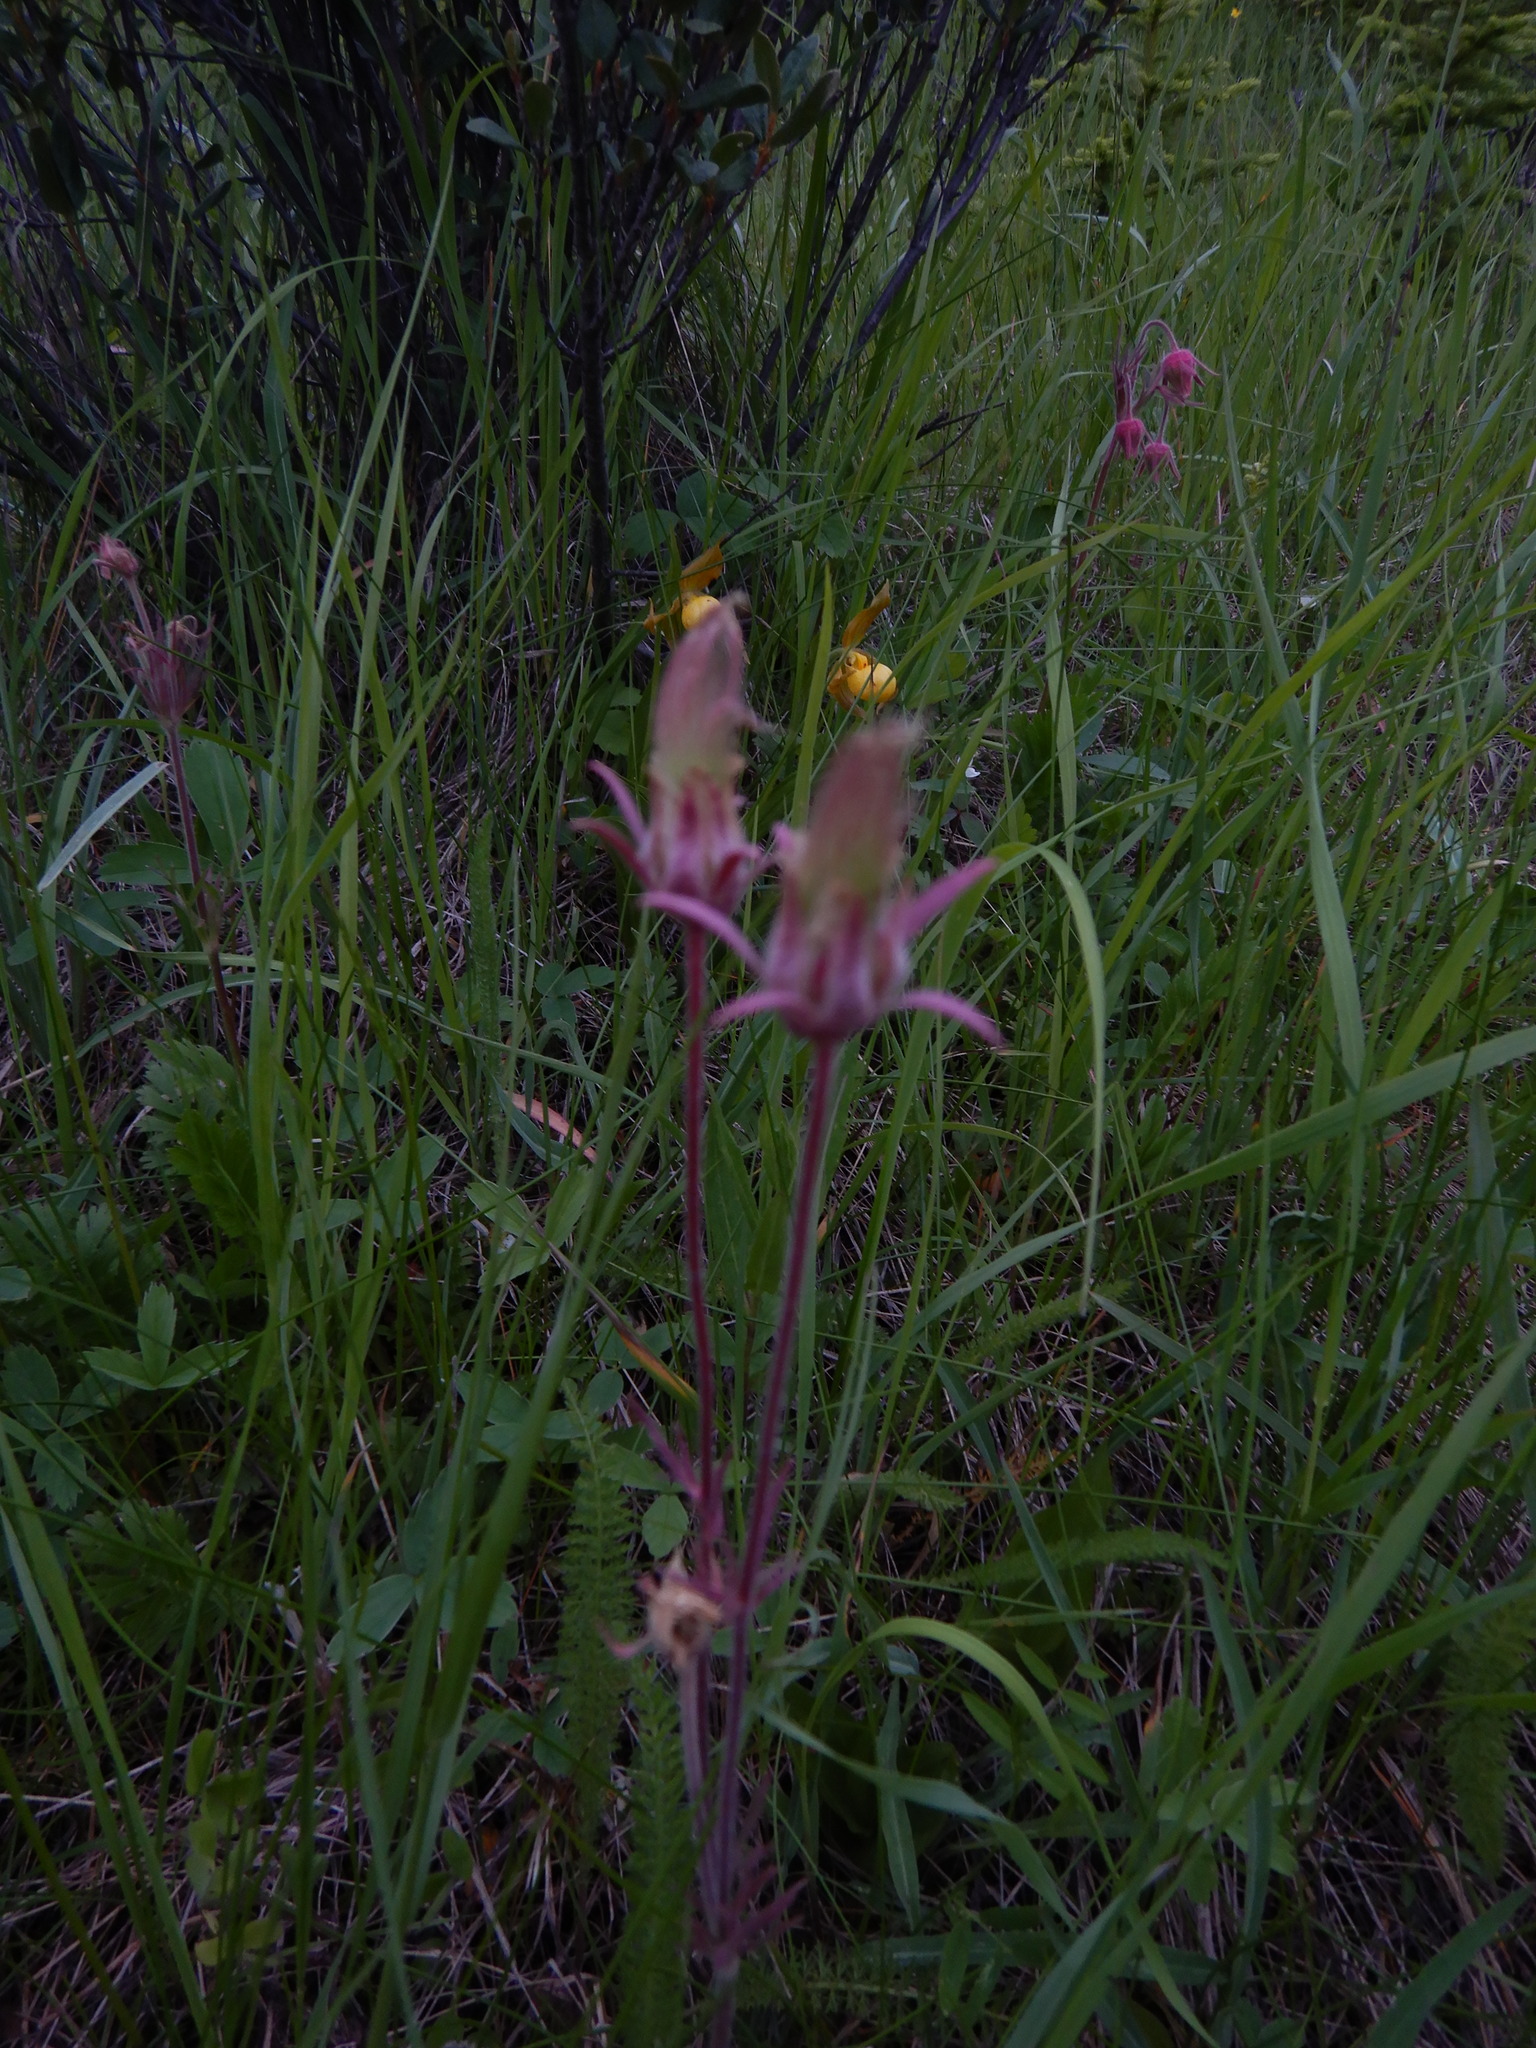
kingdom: Plantae
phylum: Tracheophyta
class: Magnoliopsida
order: Rosales
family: Rosaceae
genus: Geum
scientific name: Geum triflorum
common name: Old man's whiskers
